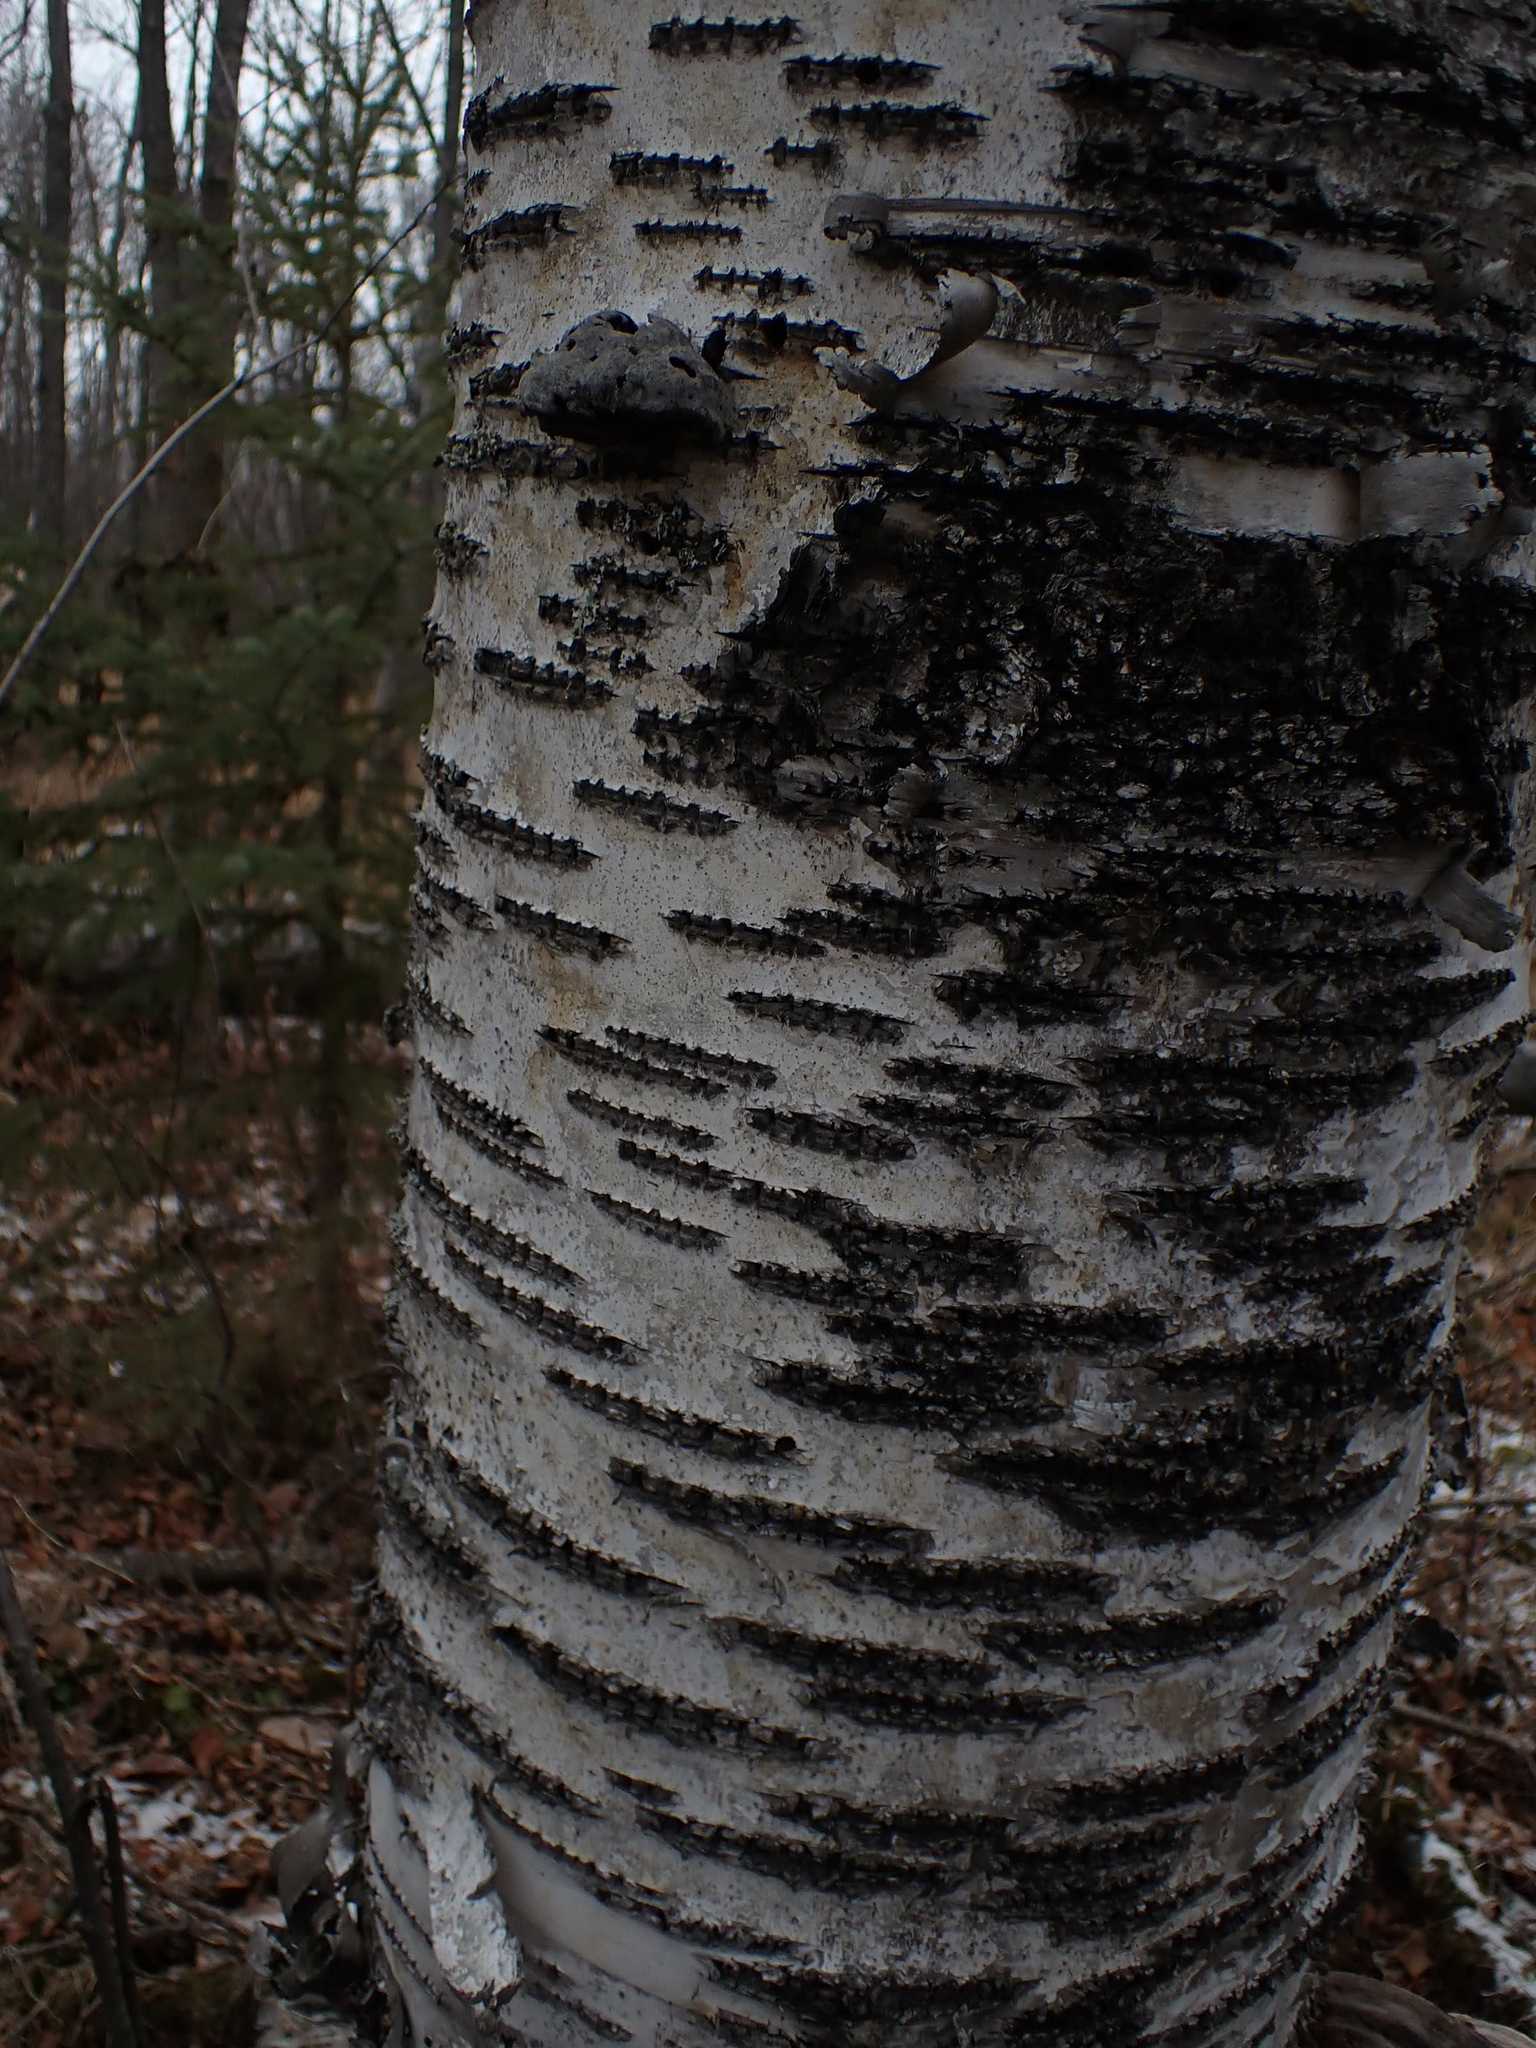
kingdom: Plantae
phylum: Tracheophyta
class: Magnoliopsida
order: Fagales
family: Betulaceae
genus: Betula
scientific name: Betula papyrifera
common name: Paper birch
